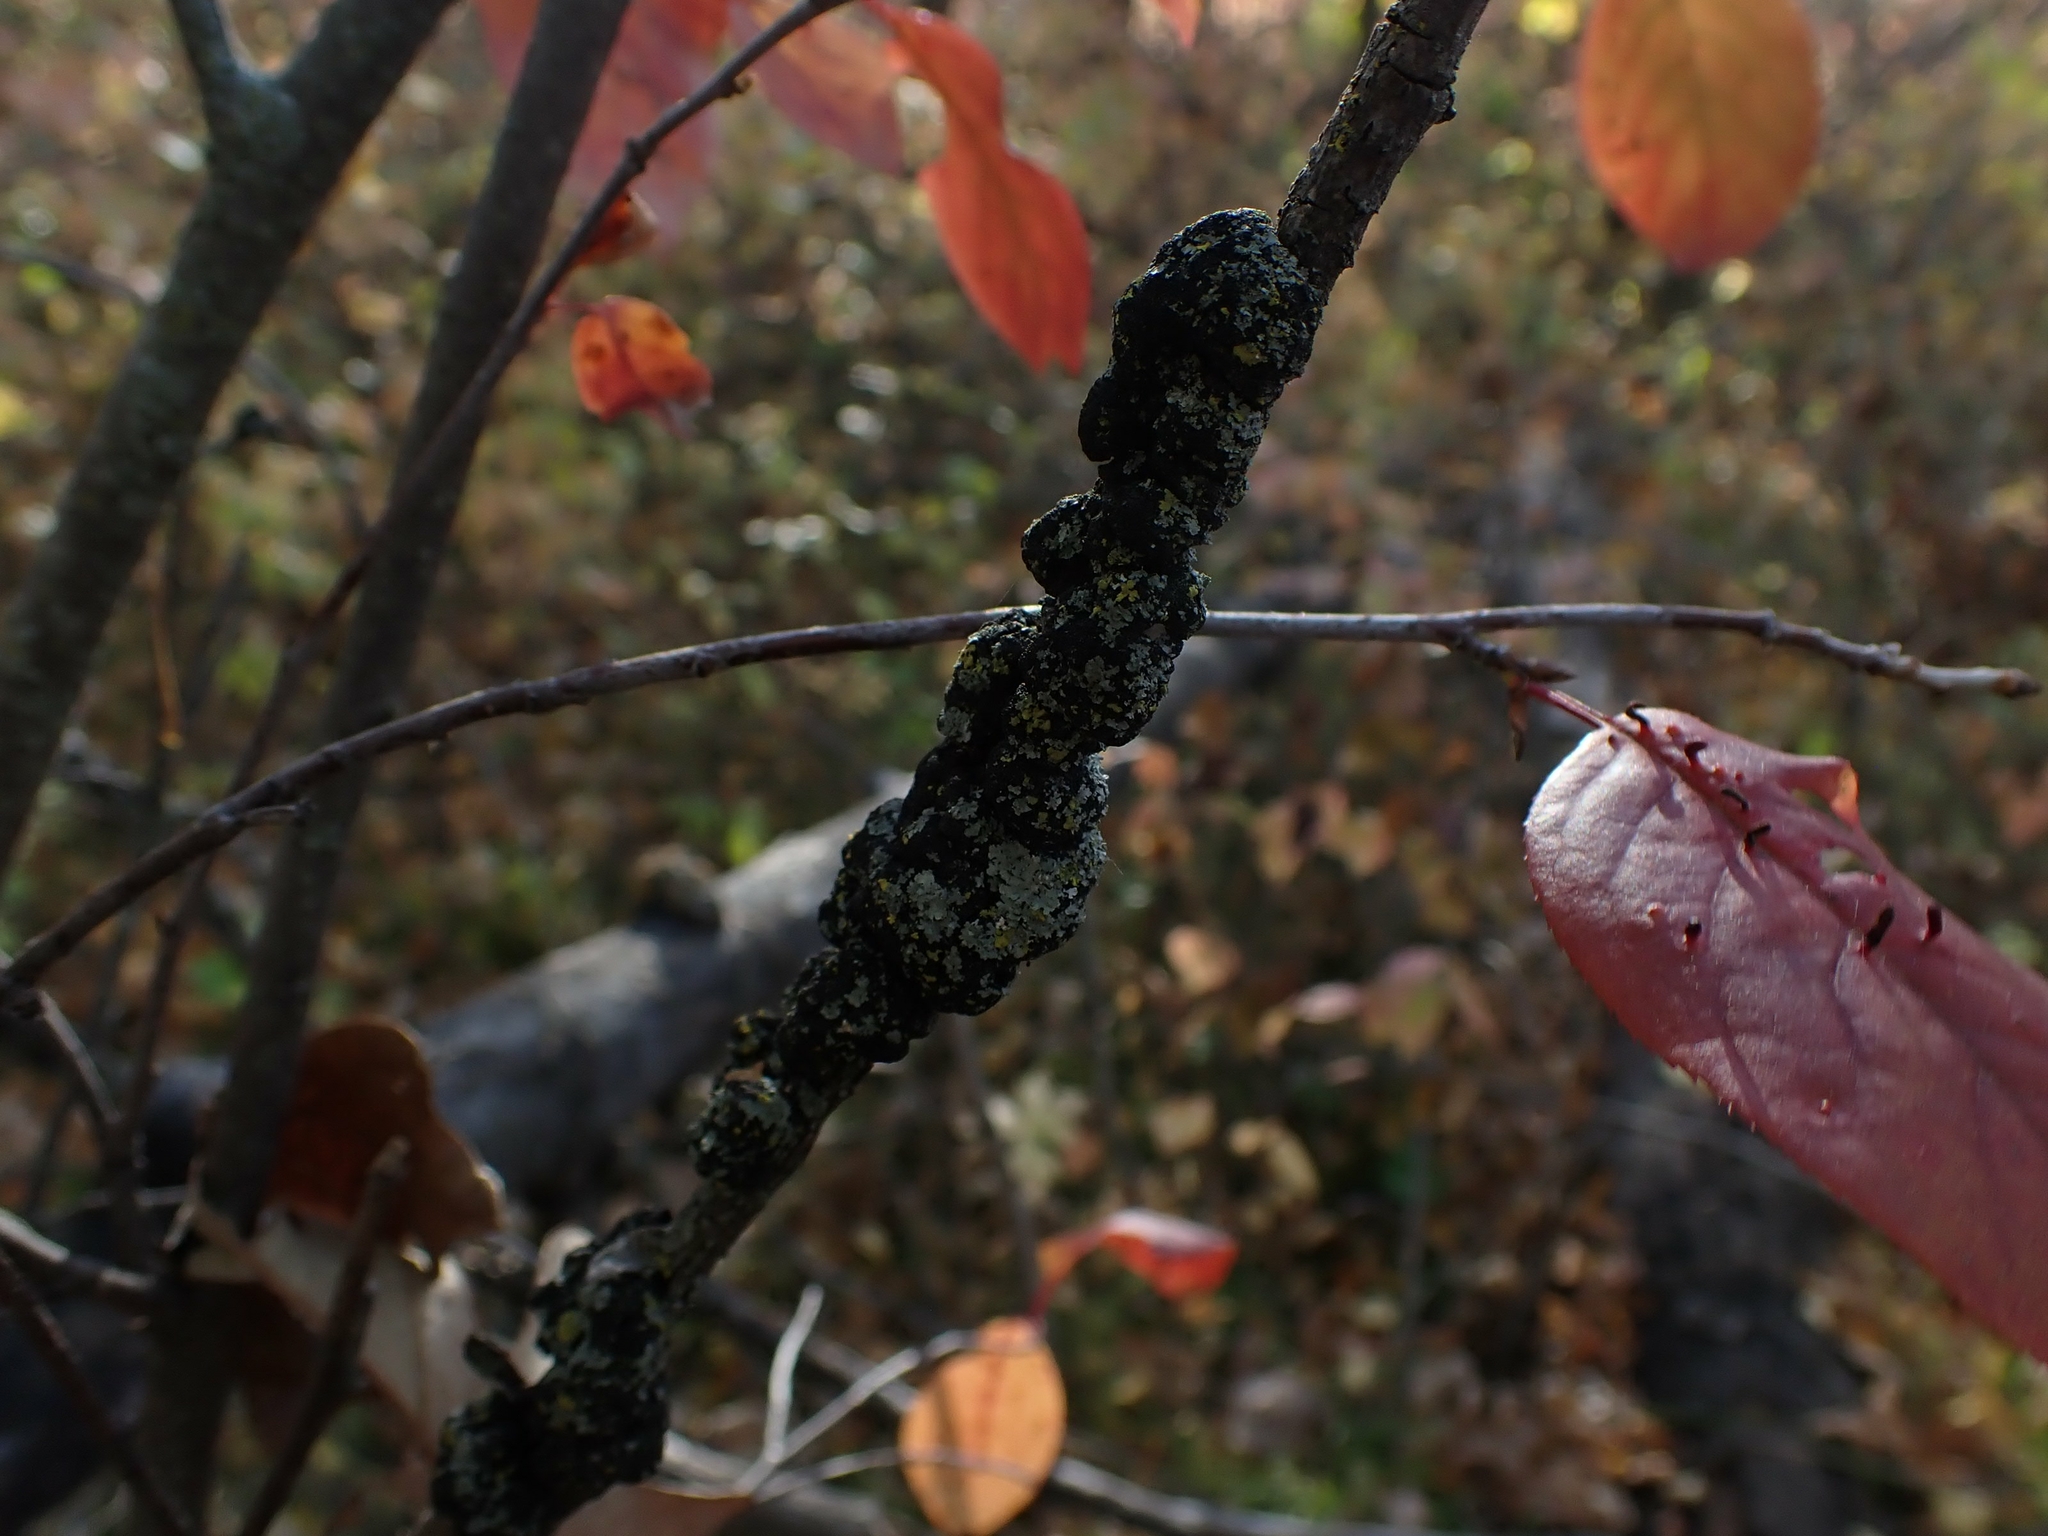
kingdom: Fungi
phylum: Ascomycota
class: Dothideomycetes
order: Venturiales
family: Venturiaceae
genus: Apiosporina
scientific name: Apiosporina morbosa
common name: Black knot
